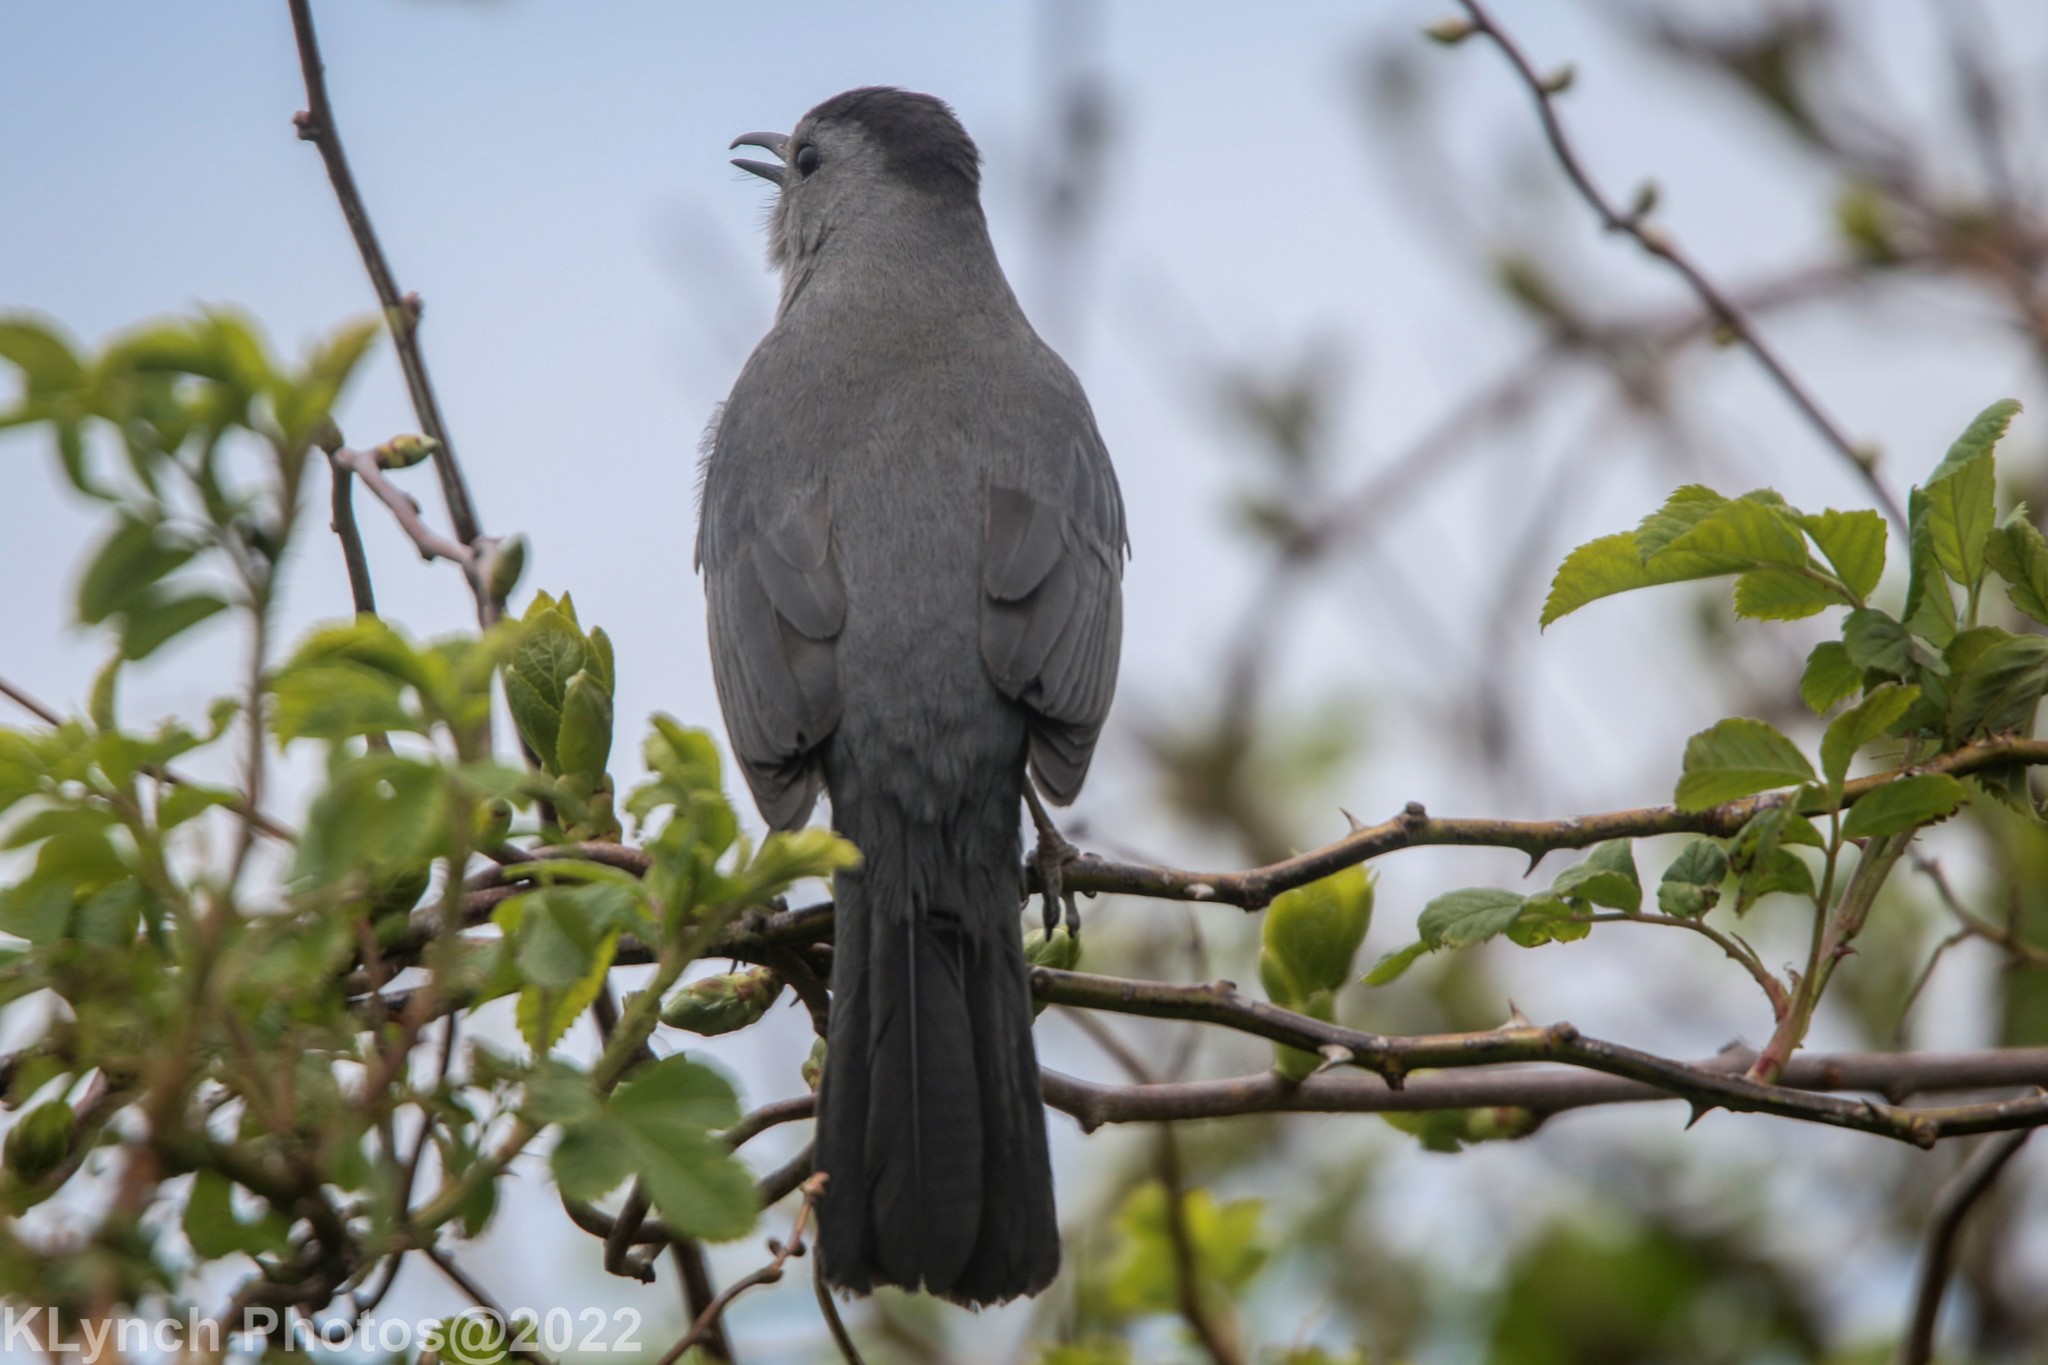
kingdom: Animalia
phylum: Chordata
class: Aves
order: Passeriformes
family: Mimidae
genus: Dumetella
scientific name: Dumetella carolinensis
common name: Gray catbird
